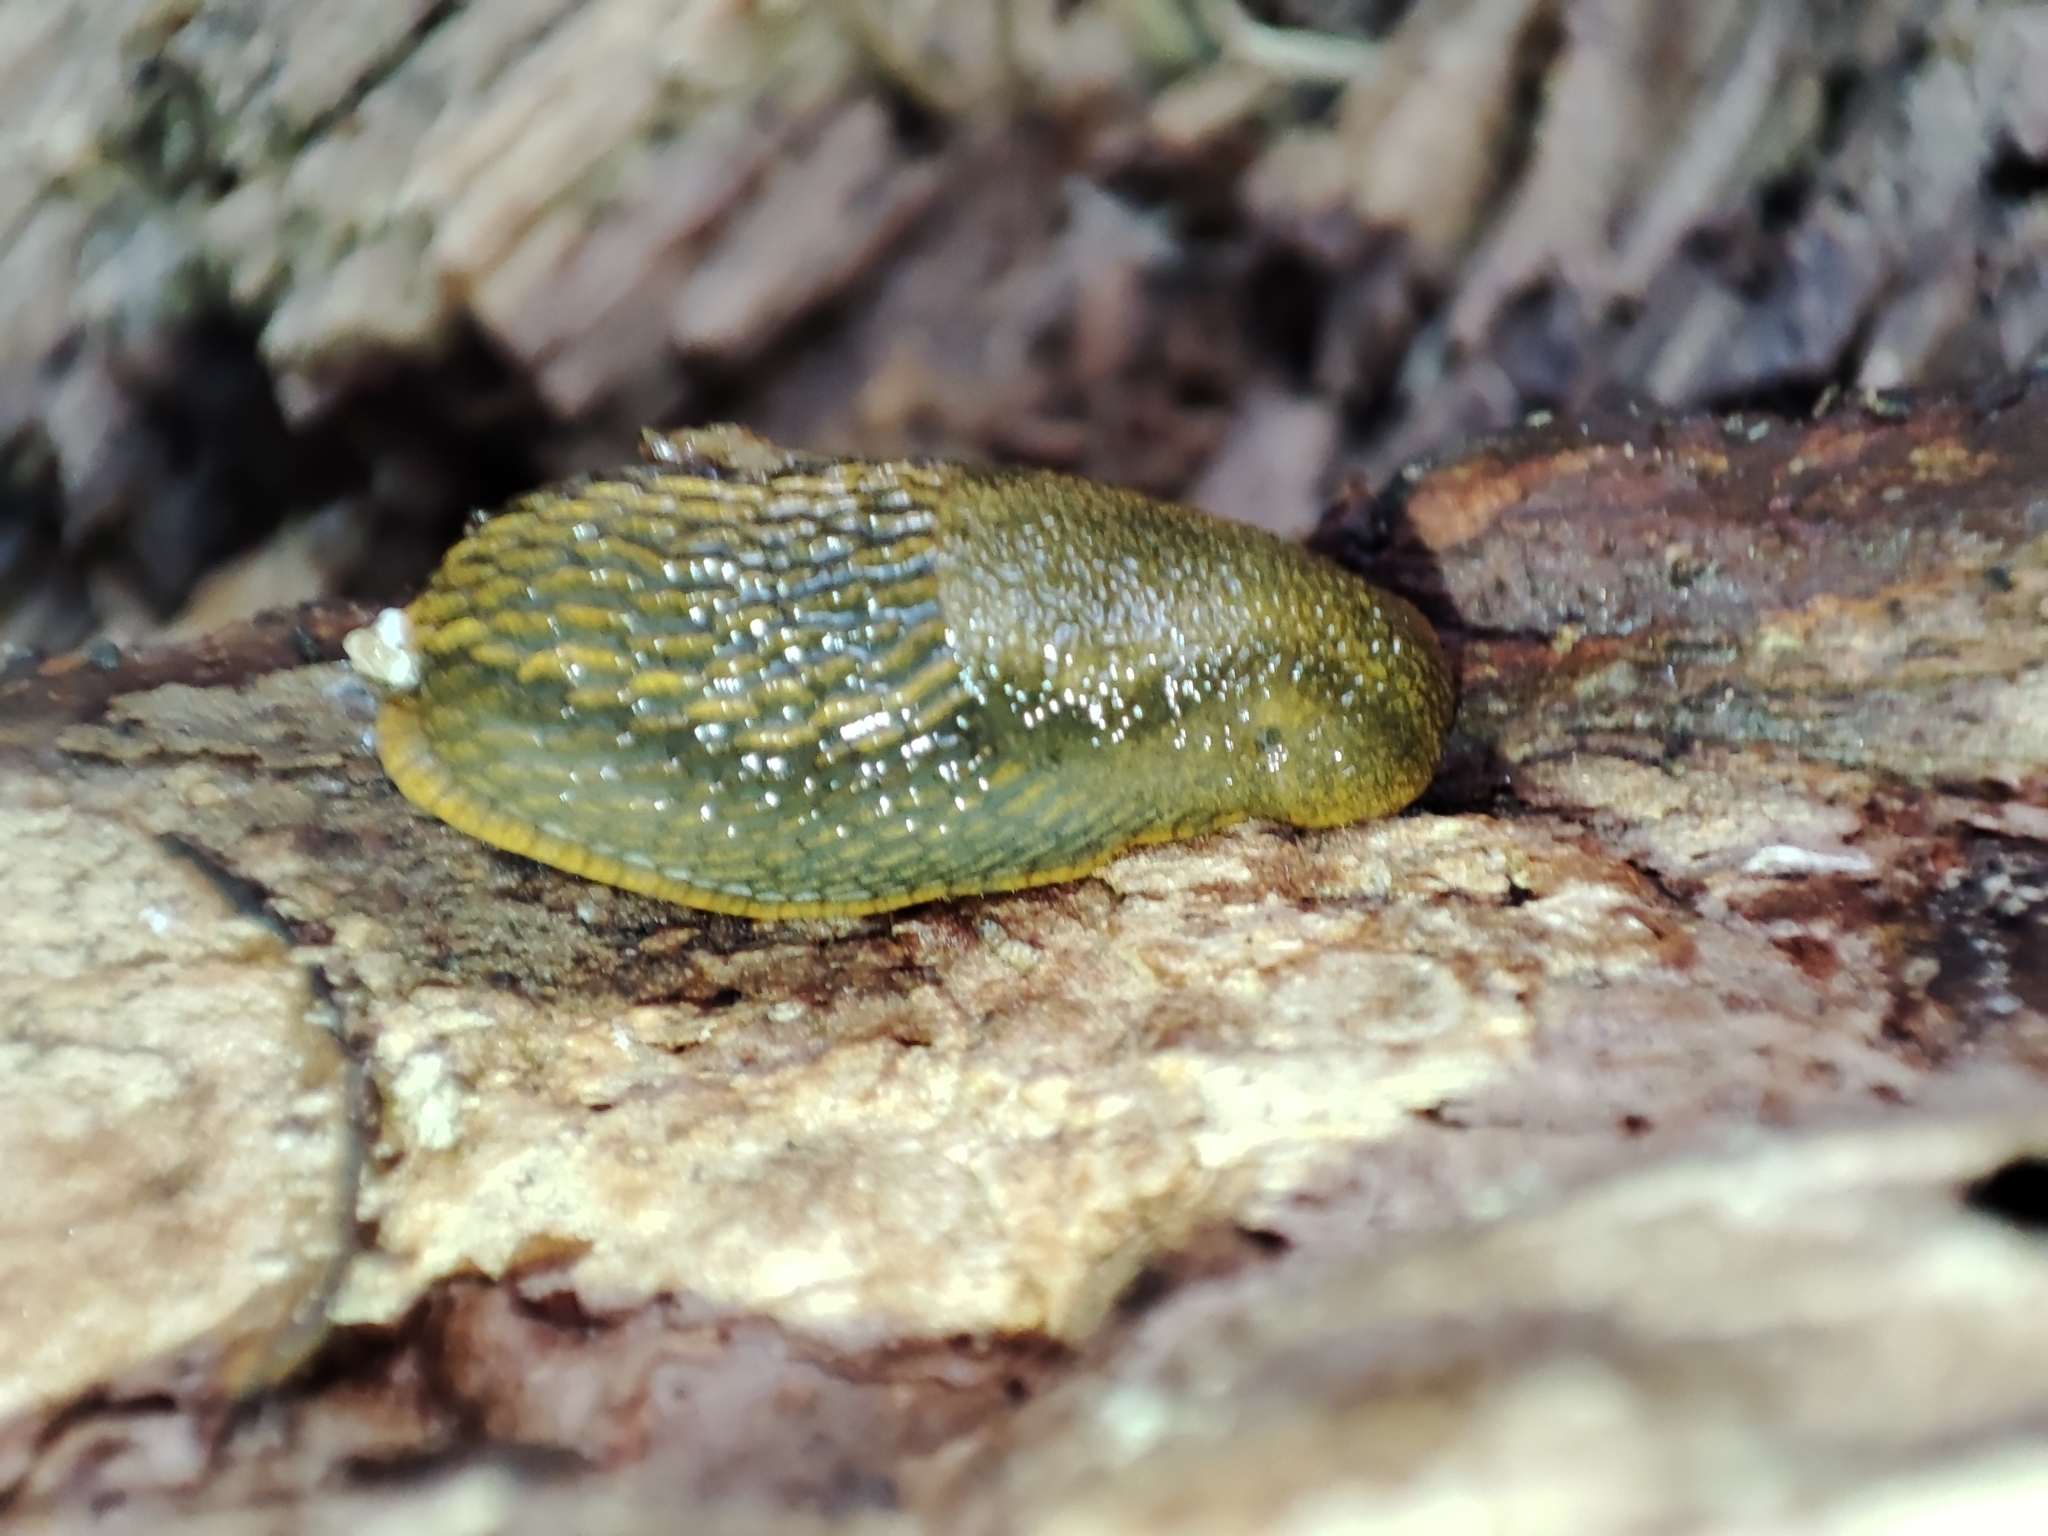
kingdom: Animalia
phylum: Mollusca
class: Gastropoda
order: Stylommatophora
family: Arionidae
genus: Arion
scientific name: Arion vulgaris
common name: Lusitanian slug
